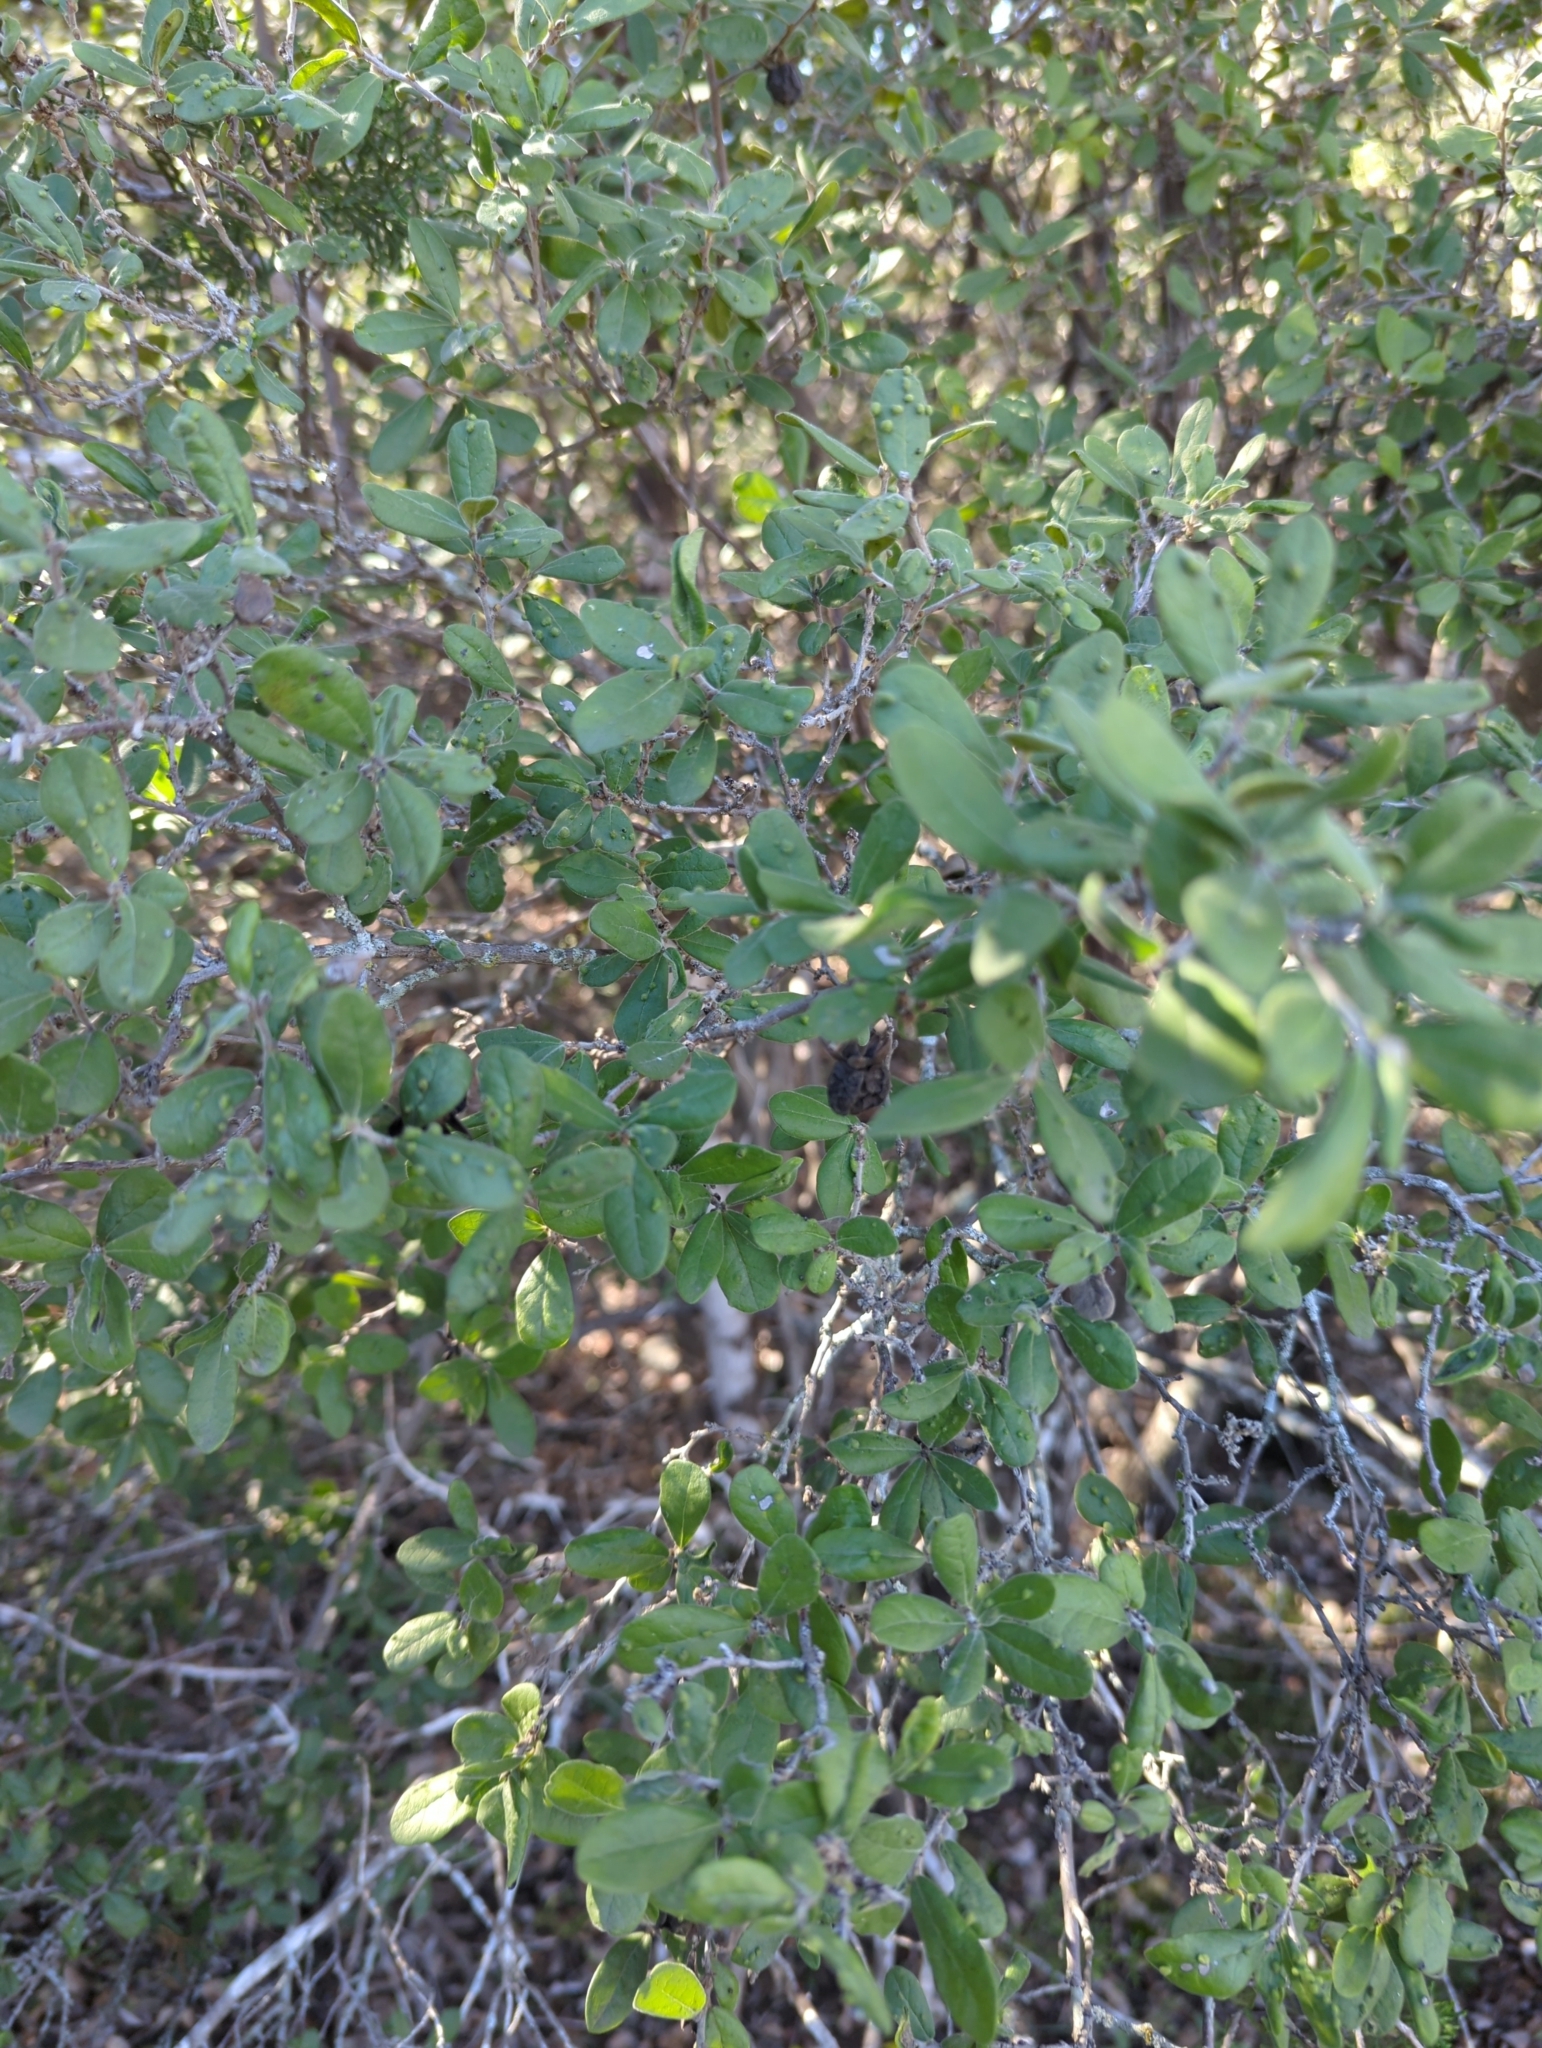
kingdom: Plantae
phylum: Tracheophyta
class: Magnoliopsida
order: Ericales
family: Ebenaceae
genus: Diospyros
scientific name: Diospyros texana
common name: Texas persimmon
